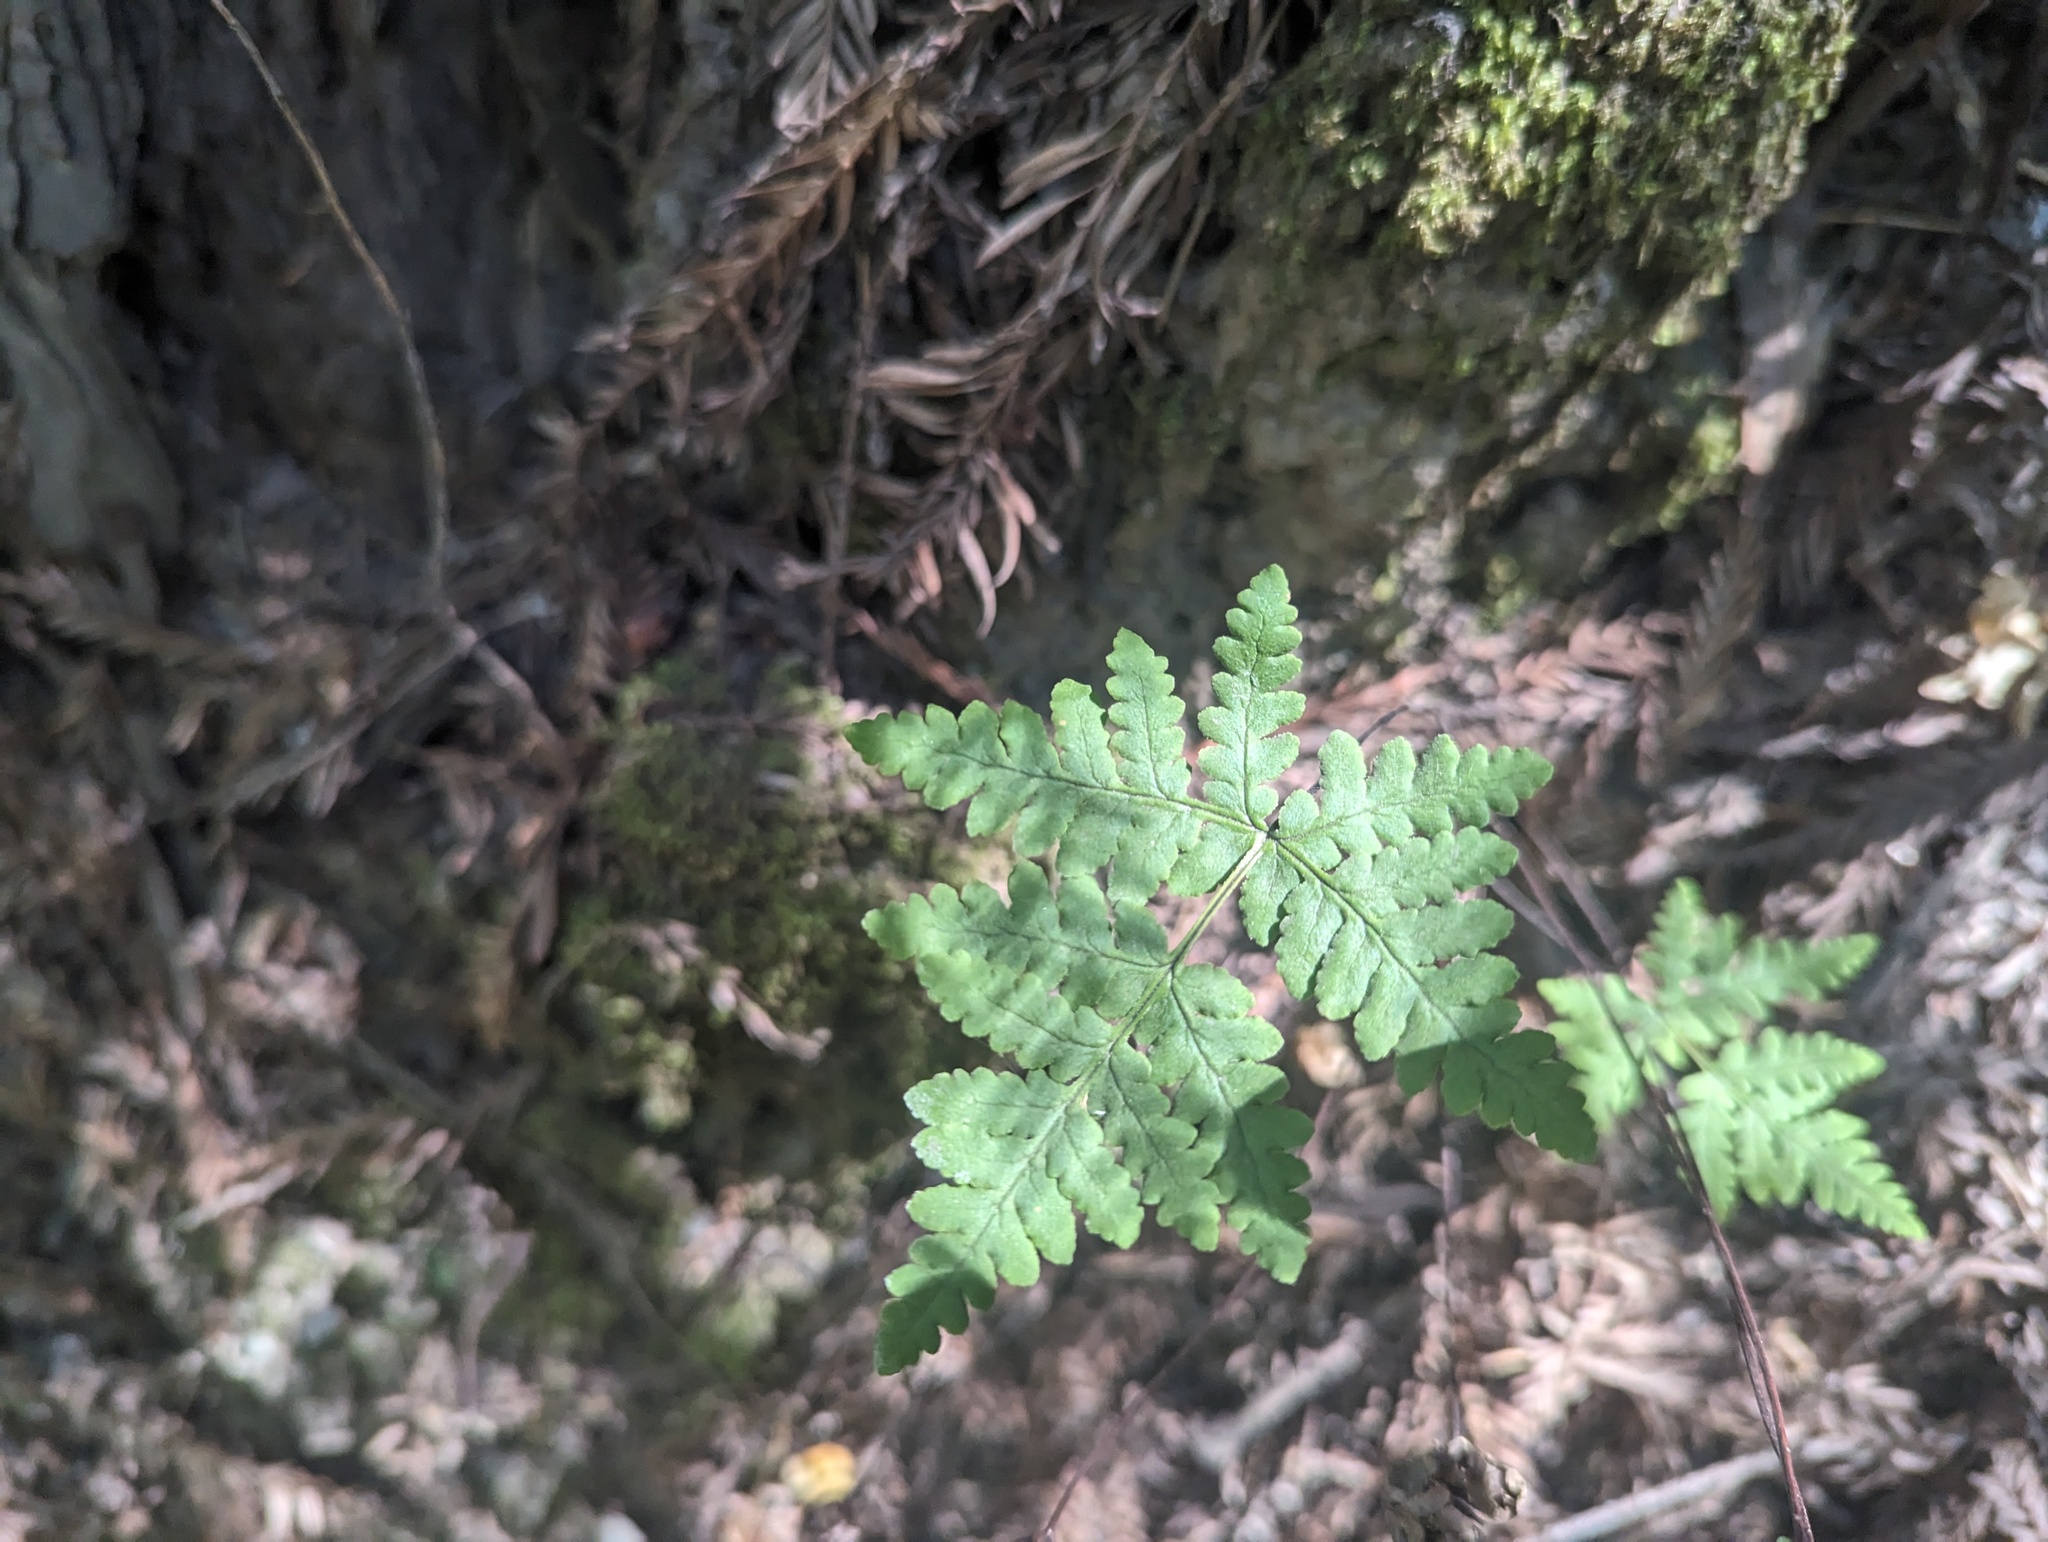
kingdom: Plantae
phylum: Tracheophyta
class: Polypodiopsida
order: Polypodiales
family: Pteridaceae
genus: Pentagramma
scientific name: Pentagramma triangularis
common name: Gold fern
